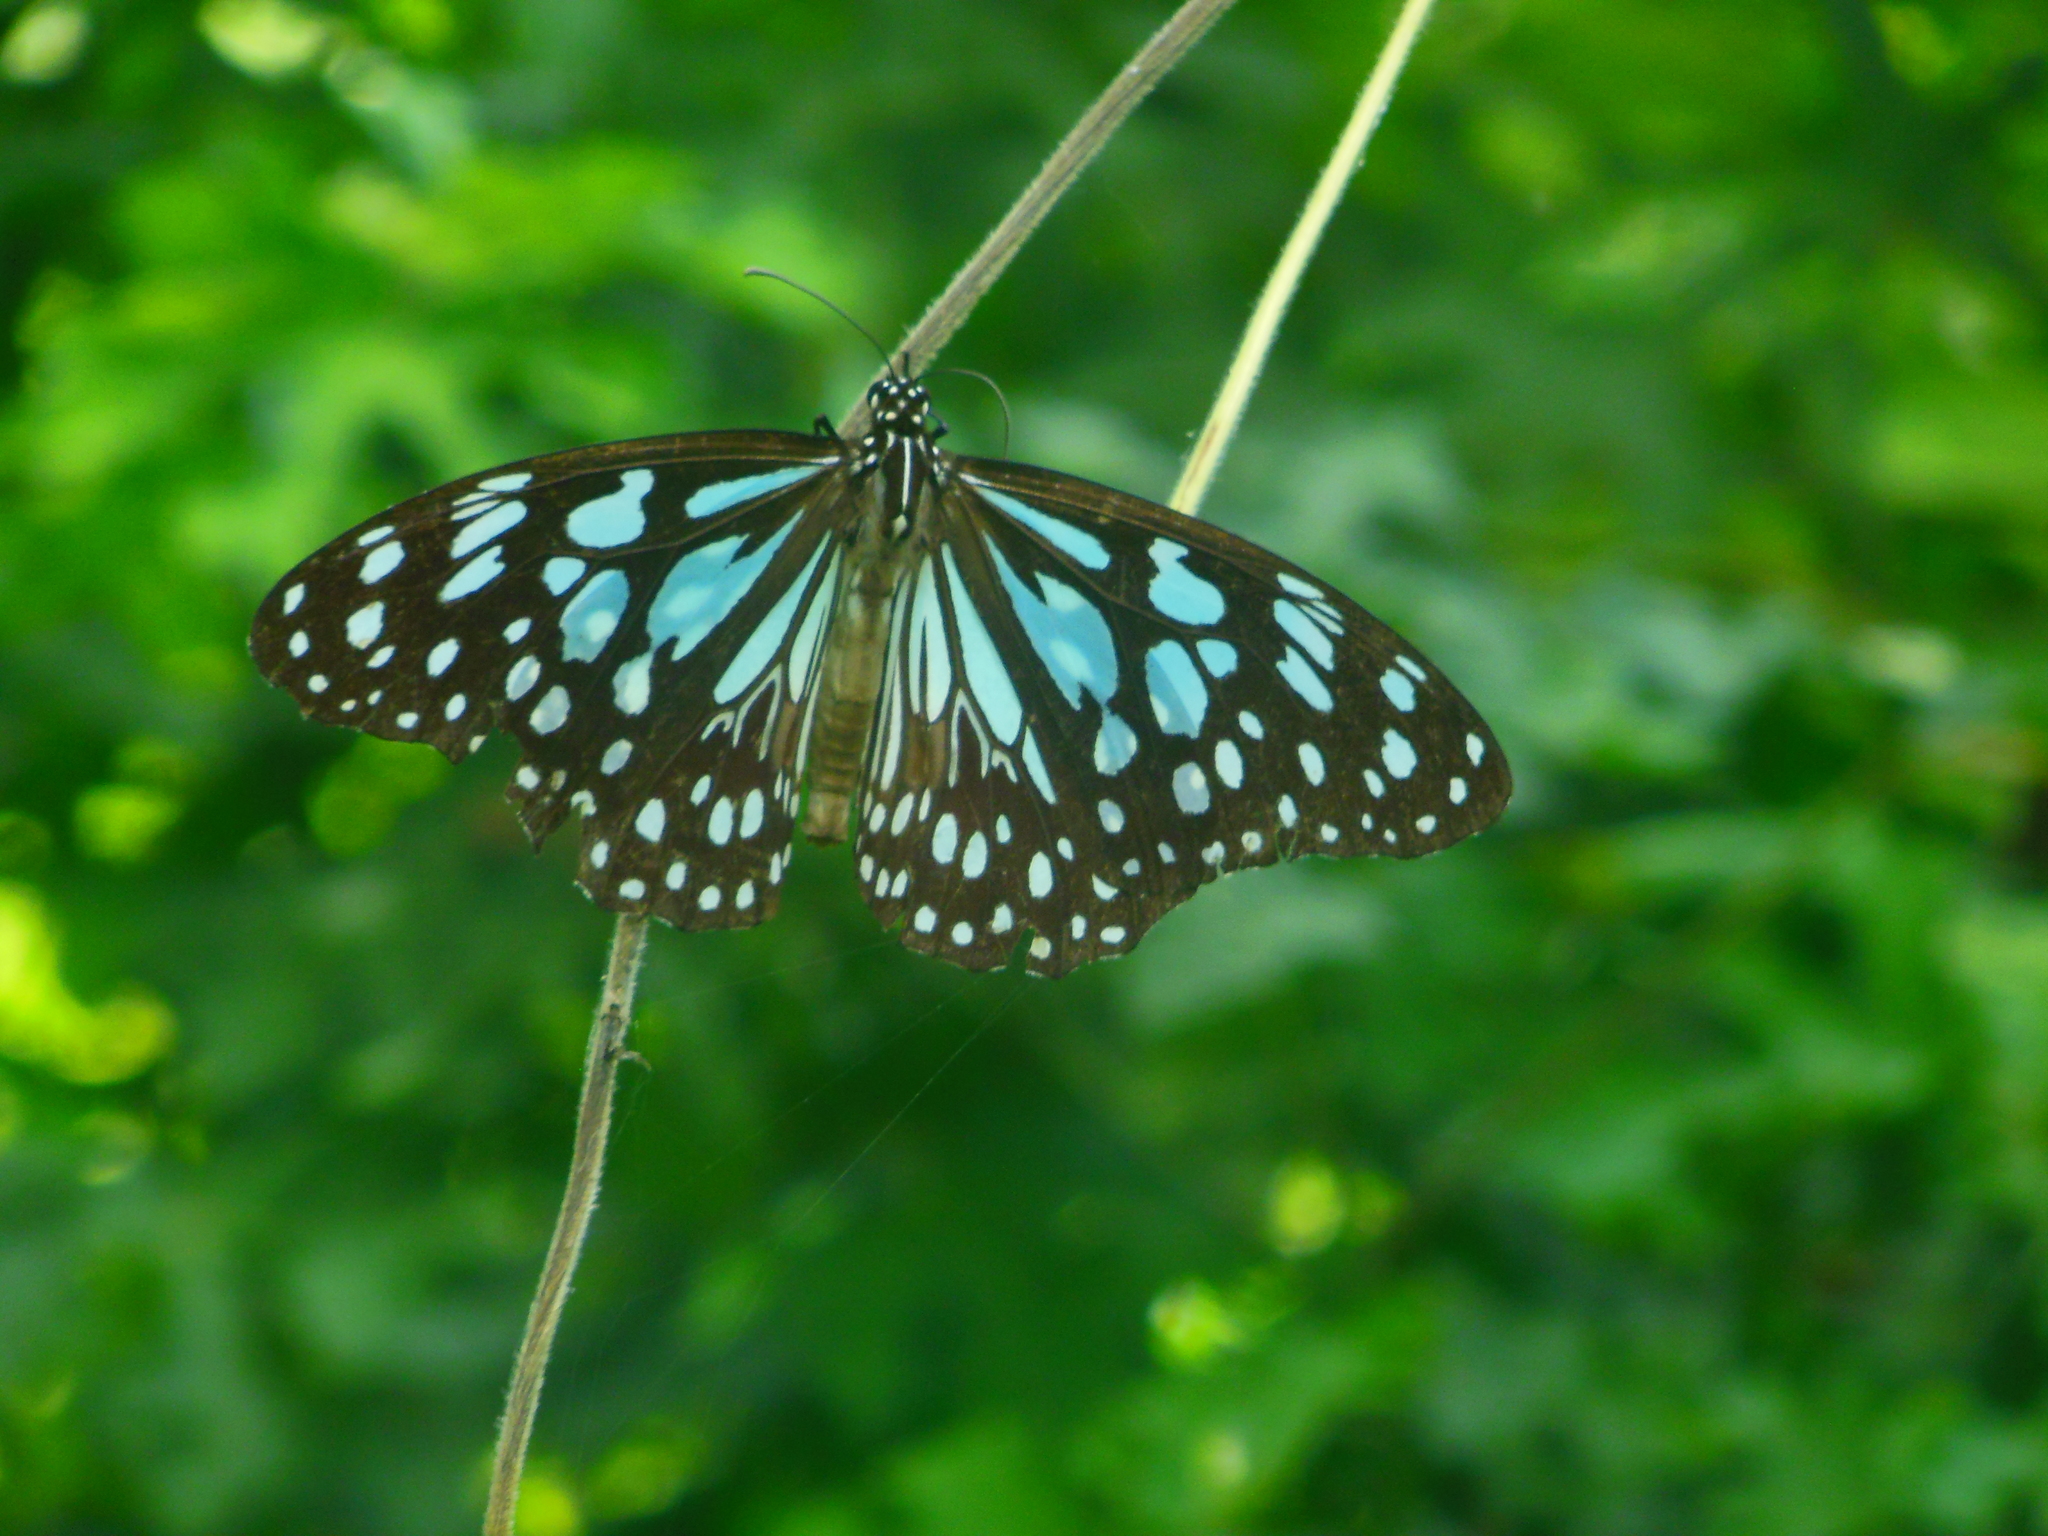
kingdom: Animalia
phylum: Arthropoda
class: Insecta
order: Lepidoptera
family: Nymphalidae
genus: Tirumala
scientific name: Tirumala limniace
